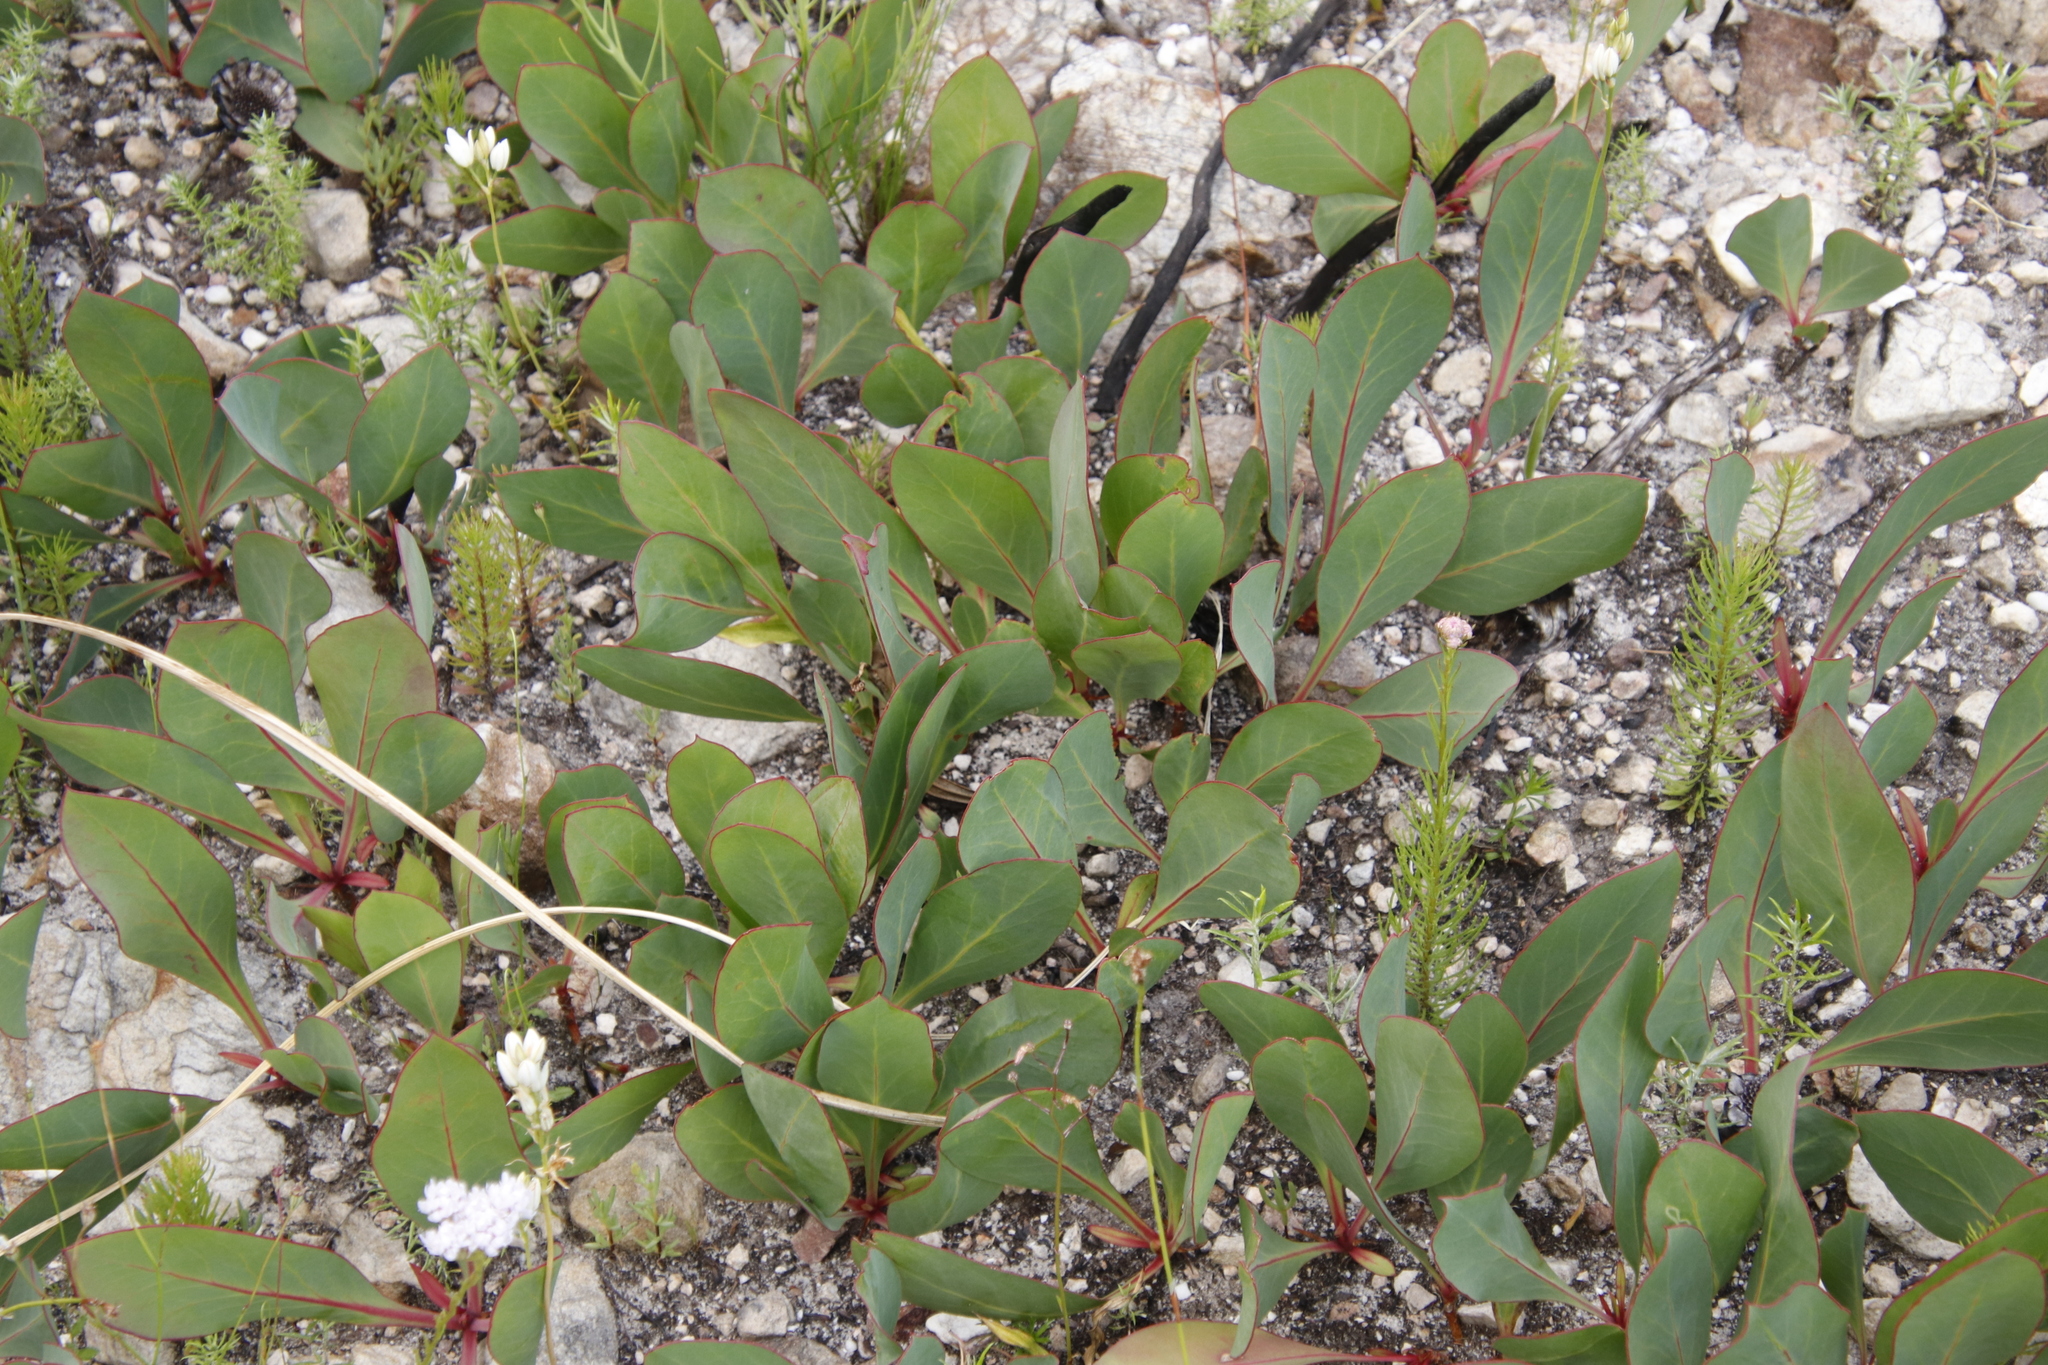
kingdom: Plantae
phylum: Tracheophyta
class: Magnoliopsida
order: Proteales
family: Proteaceae
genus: Protea
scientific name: Protea acaulos
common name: Common ground sugarbush
